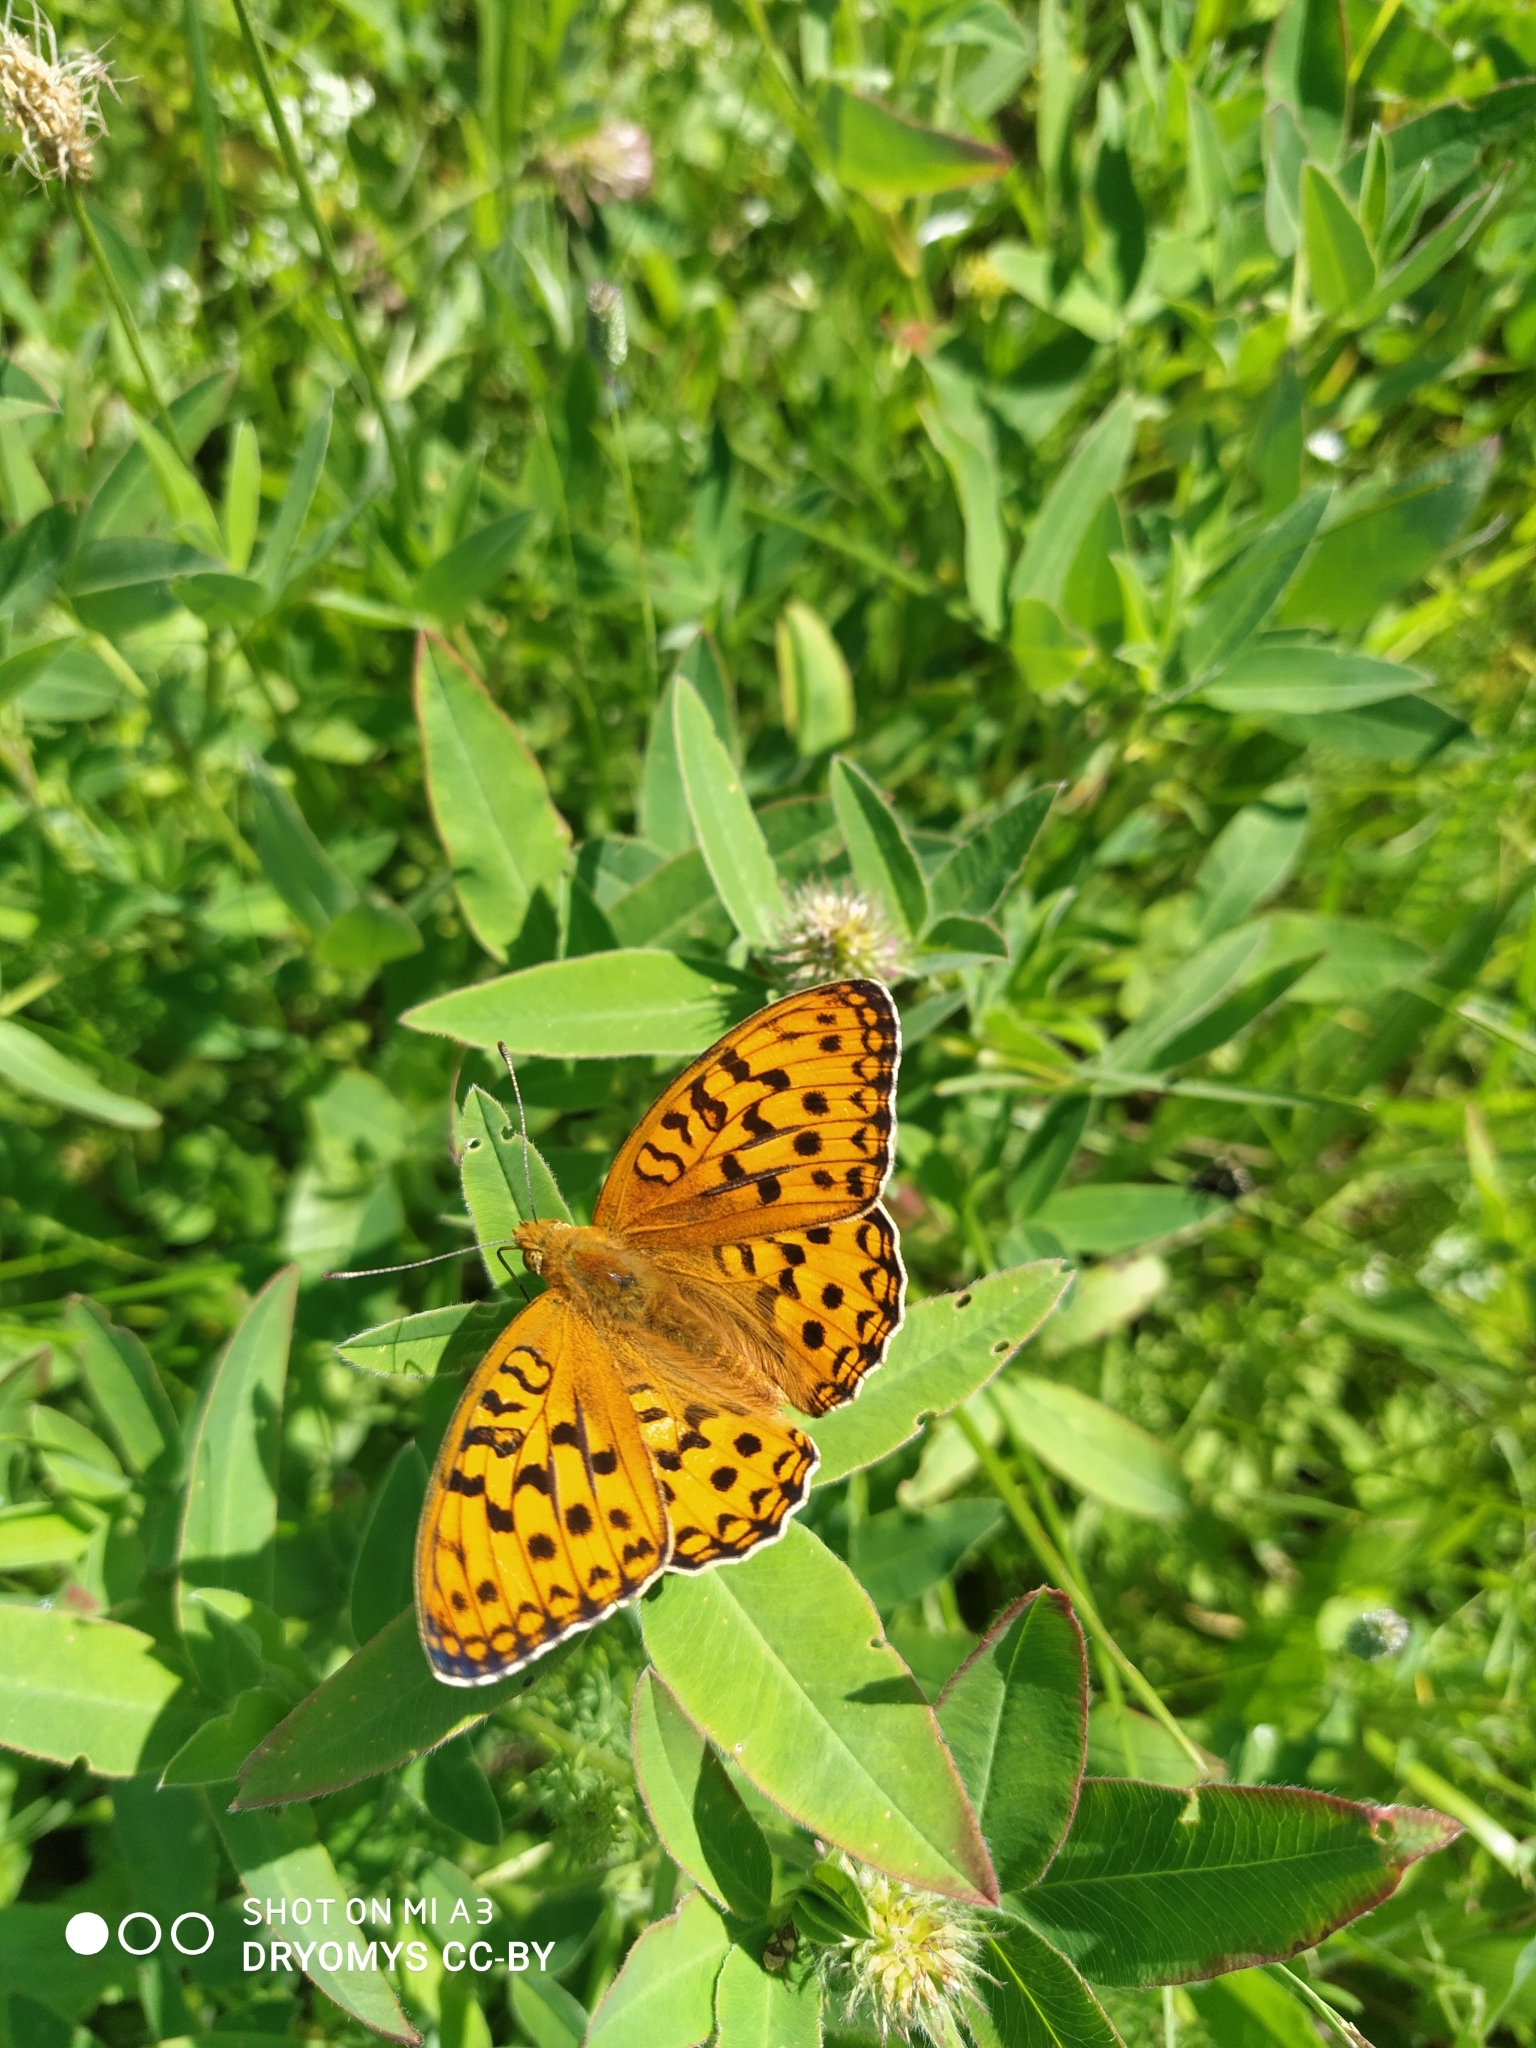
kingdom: Animalia
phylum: Arthropoda
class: Insecta
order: Lepidoptera
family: Nymphalidae
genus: Fabriciana
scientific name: Fabriciana adippe
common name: High brown fritillary
